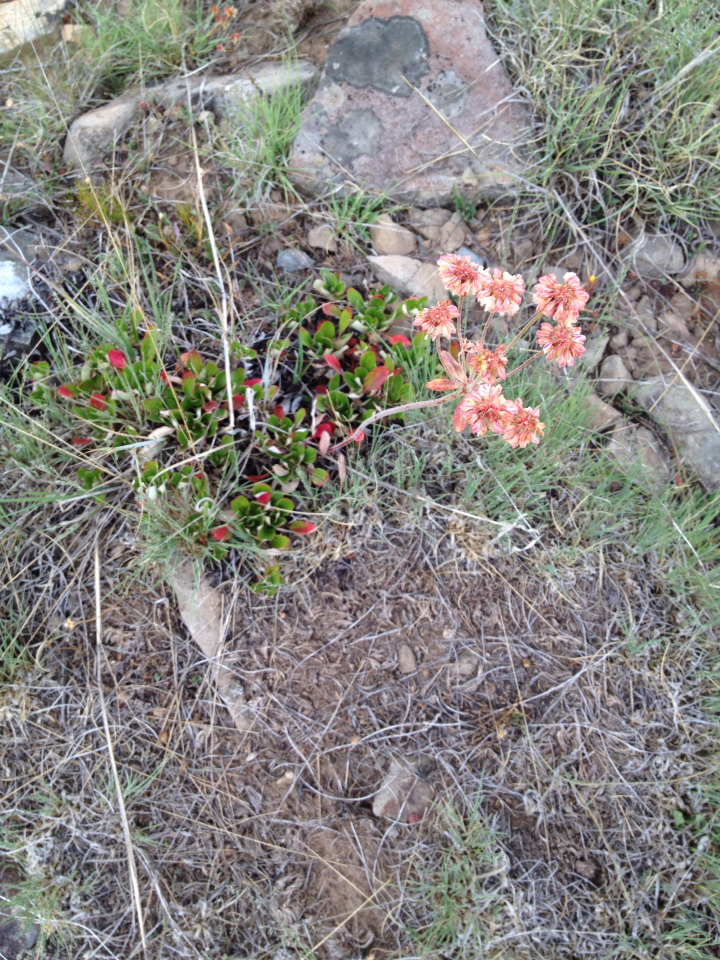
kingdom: Plantae
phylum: Tracheophyta
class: Magnoliopsida
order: Caryophyllales
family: Polygonaceae
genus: Eriogonum
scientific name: Eriogonum umbellatum
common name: Sulfur-buckwheat
